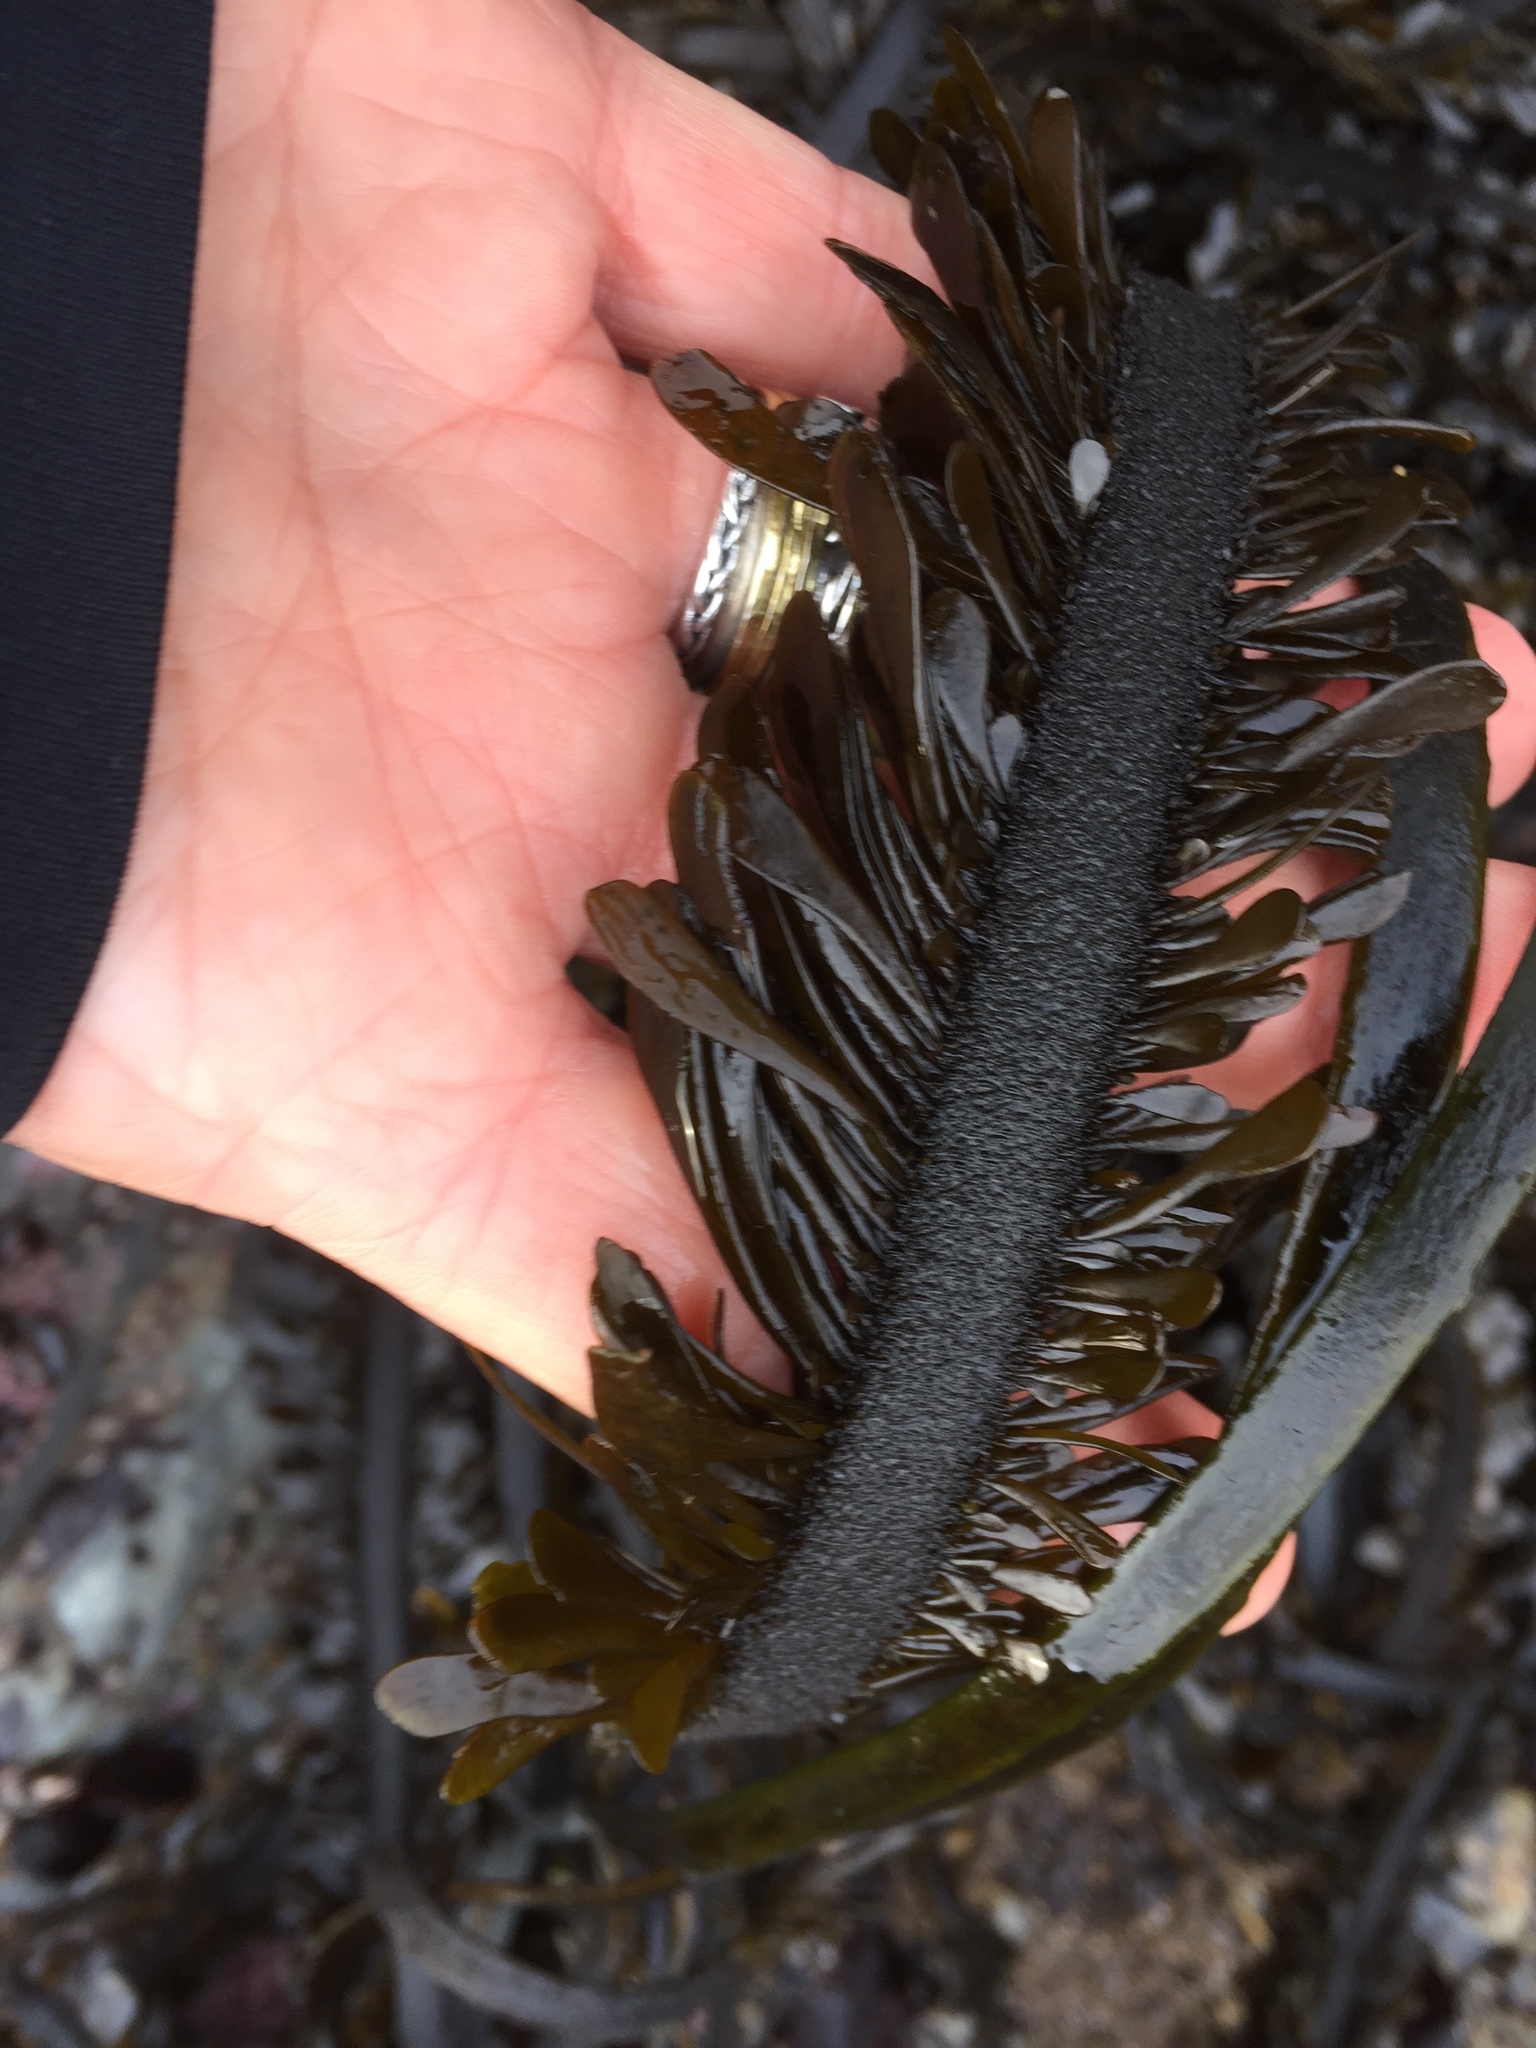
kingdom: Chromista
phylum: Ochrophyta
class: Phaeophyceae
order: Laminariales
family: Lessoniaceae
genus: Egregia
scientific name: Egregia menziesii
